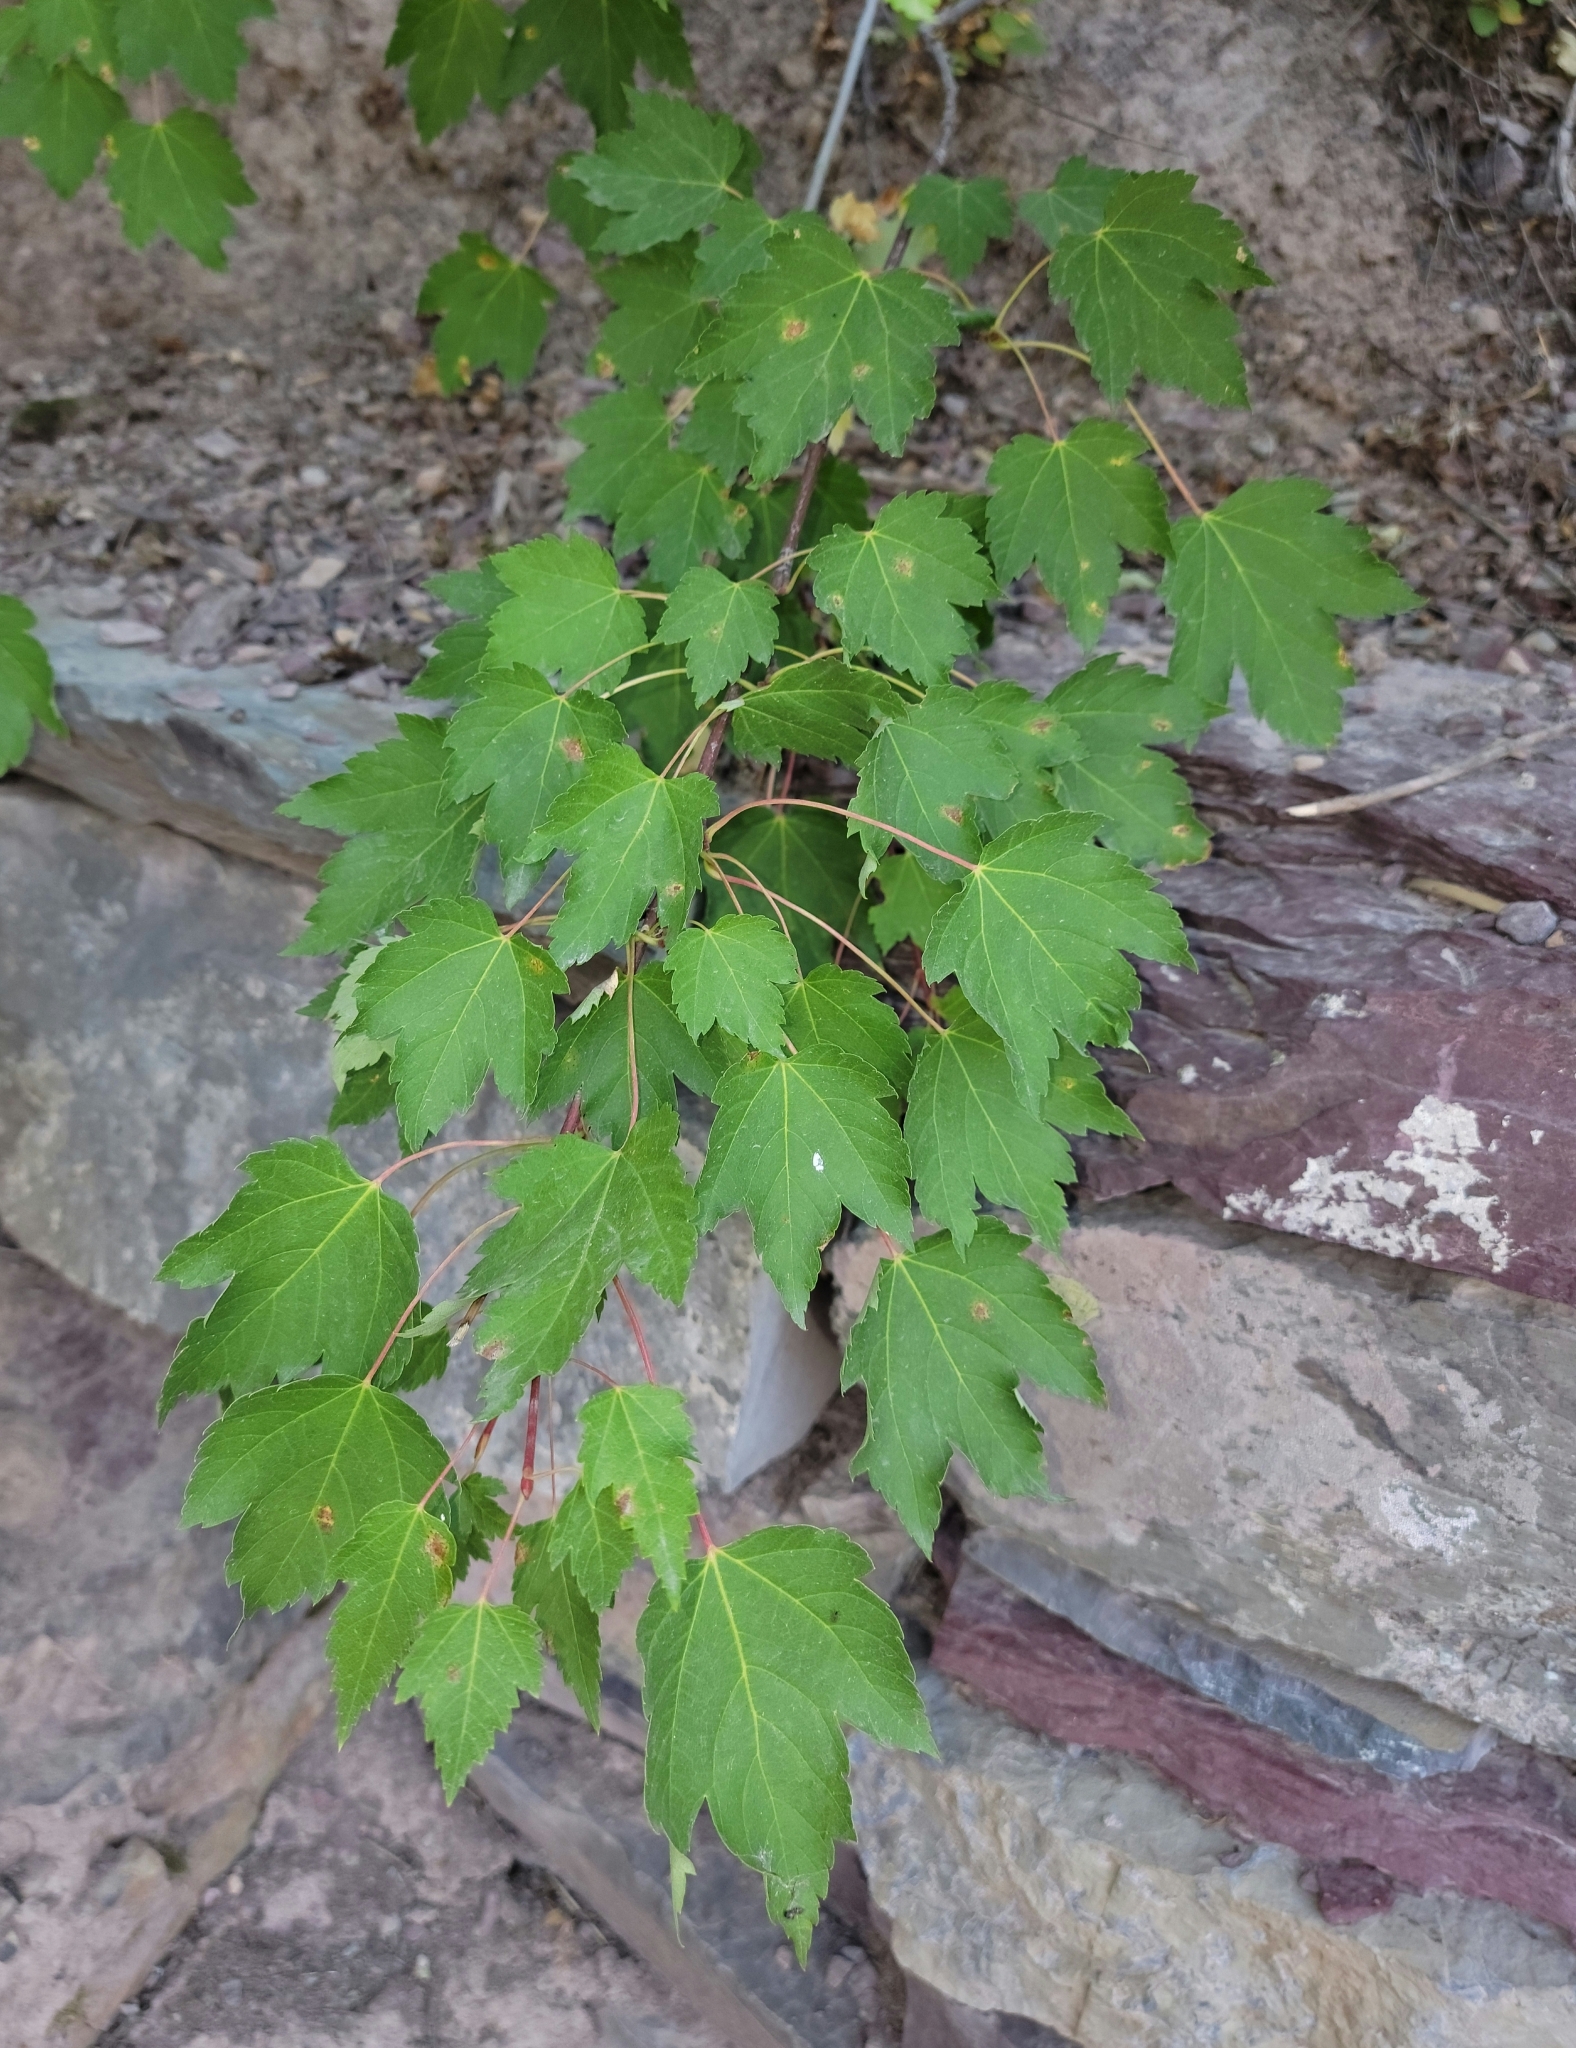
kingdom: Plantae
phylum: Tracheophyta
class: Magnoliopsida
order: Sapindales
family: Sapindaceae
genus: Acer
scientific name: Acer glabrum
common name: Rocky mountain maple
